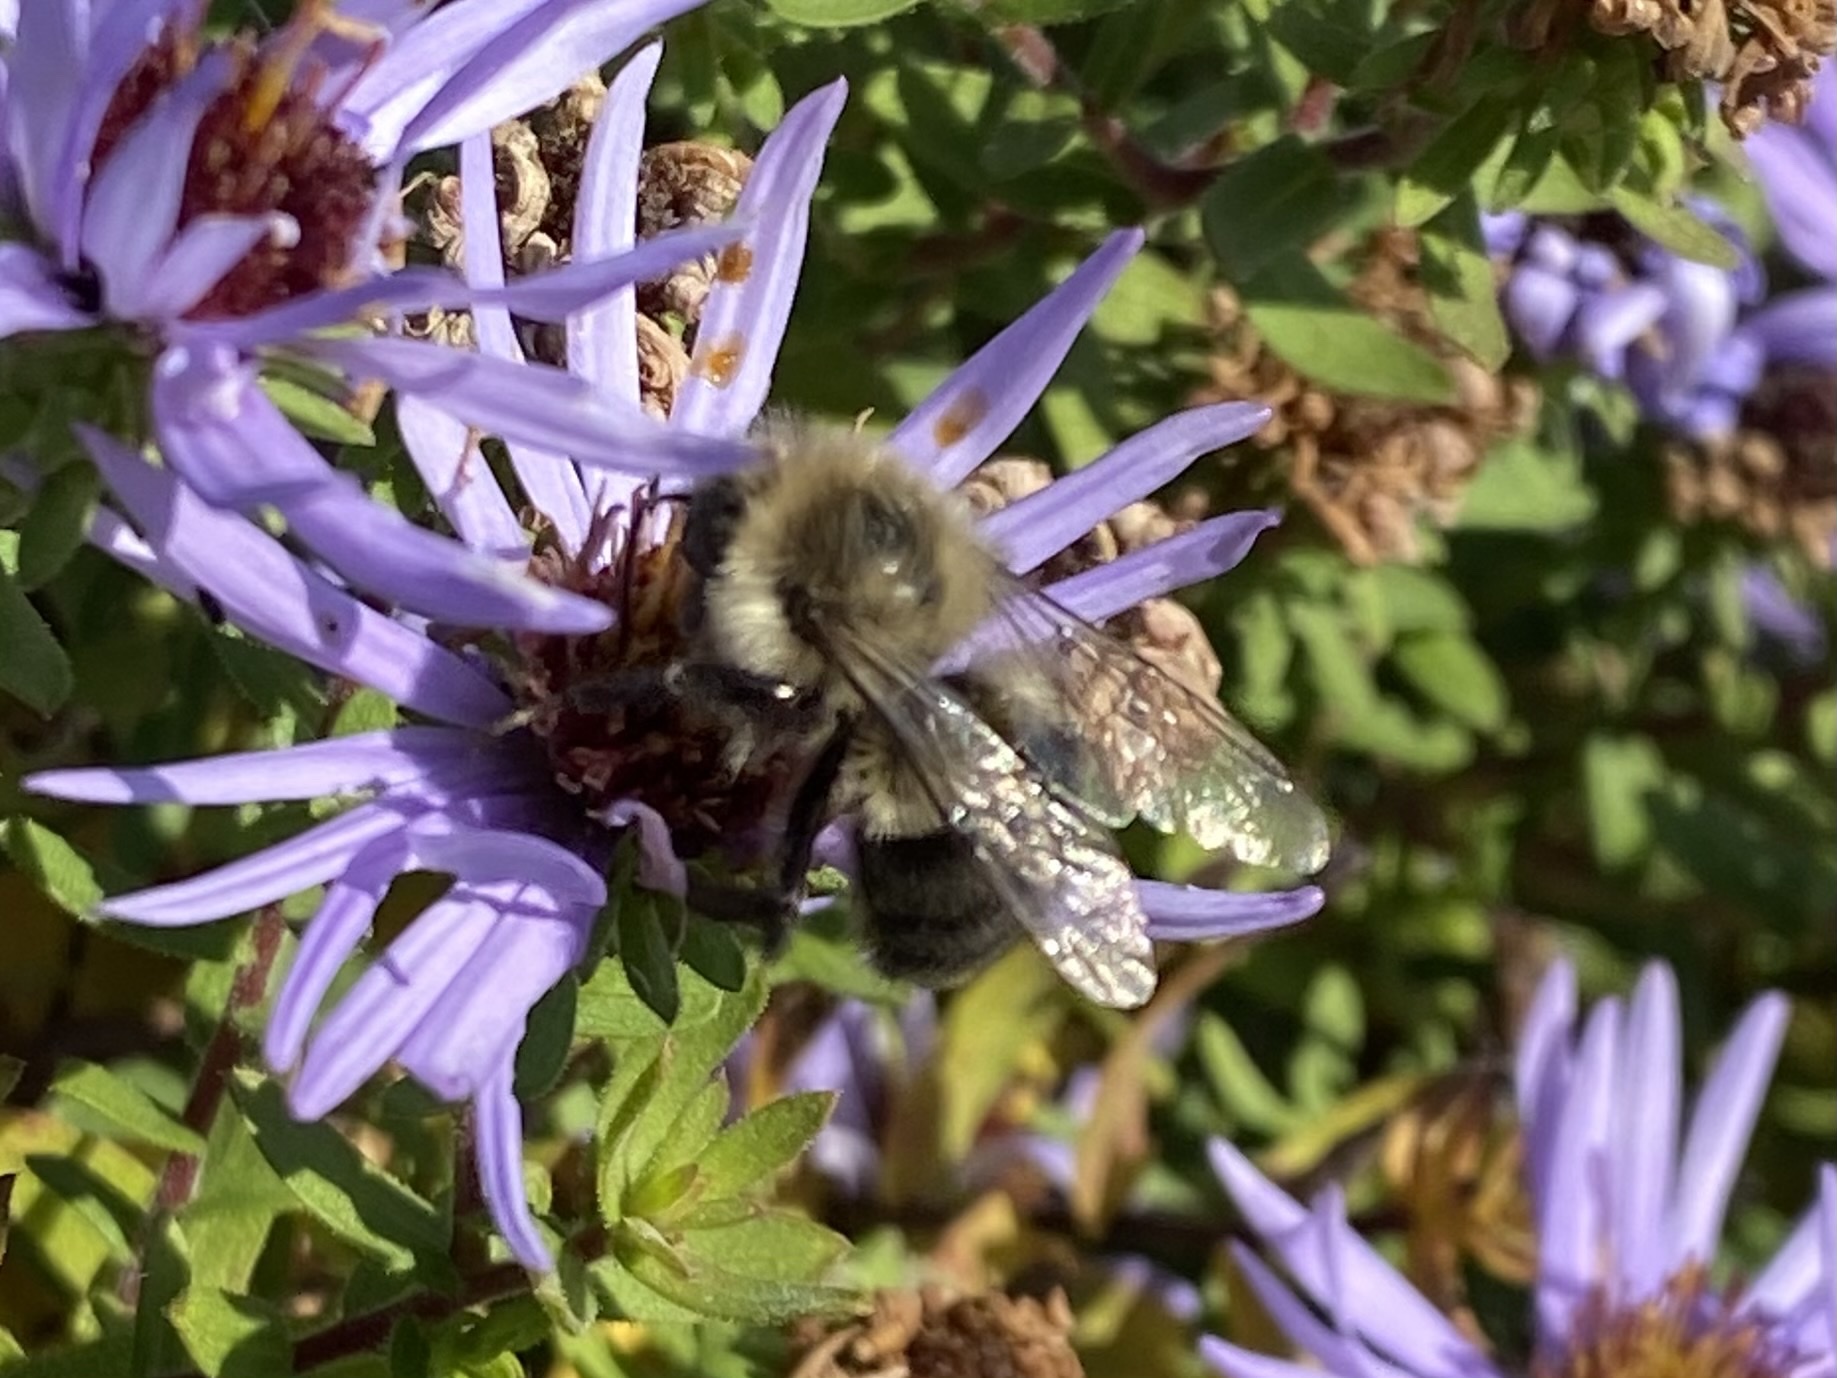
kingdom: Animalia
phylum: Arthropoda
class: Insecta
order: Hymenoptera
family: Apidae
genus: Bombus
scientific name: Bombus impatiens
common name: Common eastern bumble bee
